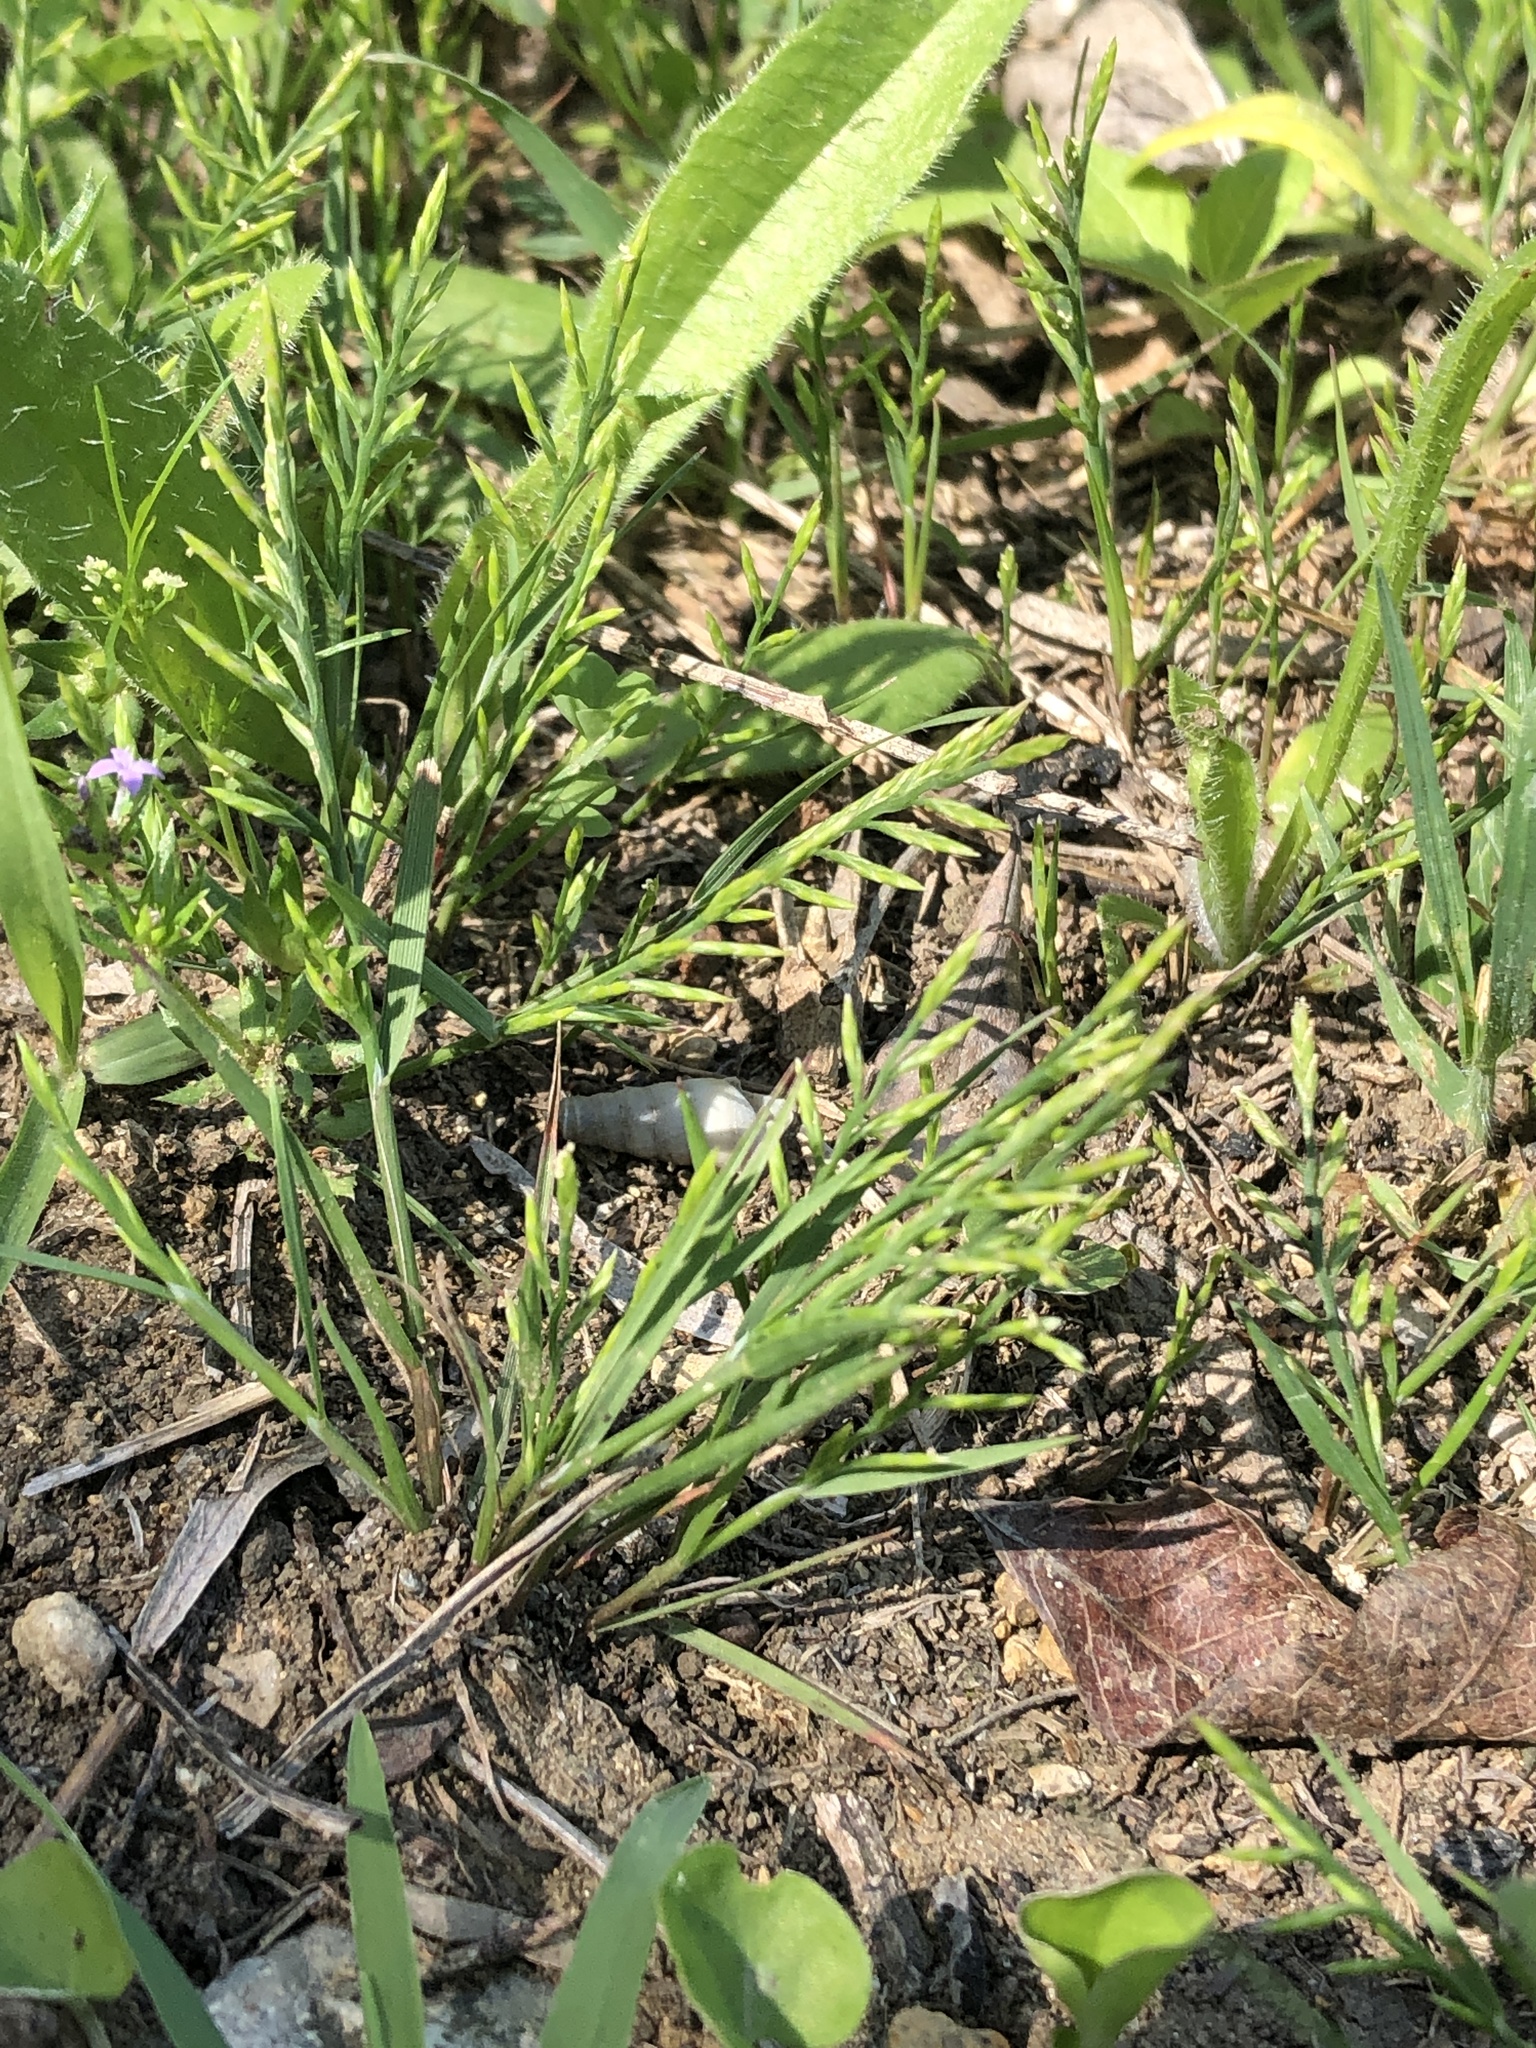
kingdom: Plantae
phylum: Tracheophyta
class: Liliopsida
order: Poales
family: Poaceae
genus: Catapodium
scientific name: Catapodium rigidum
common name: Fern-grass
